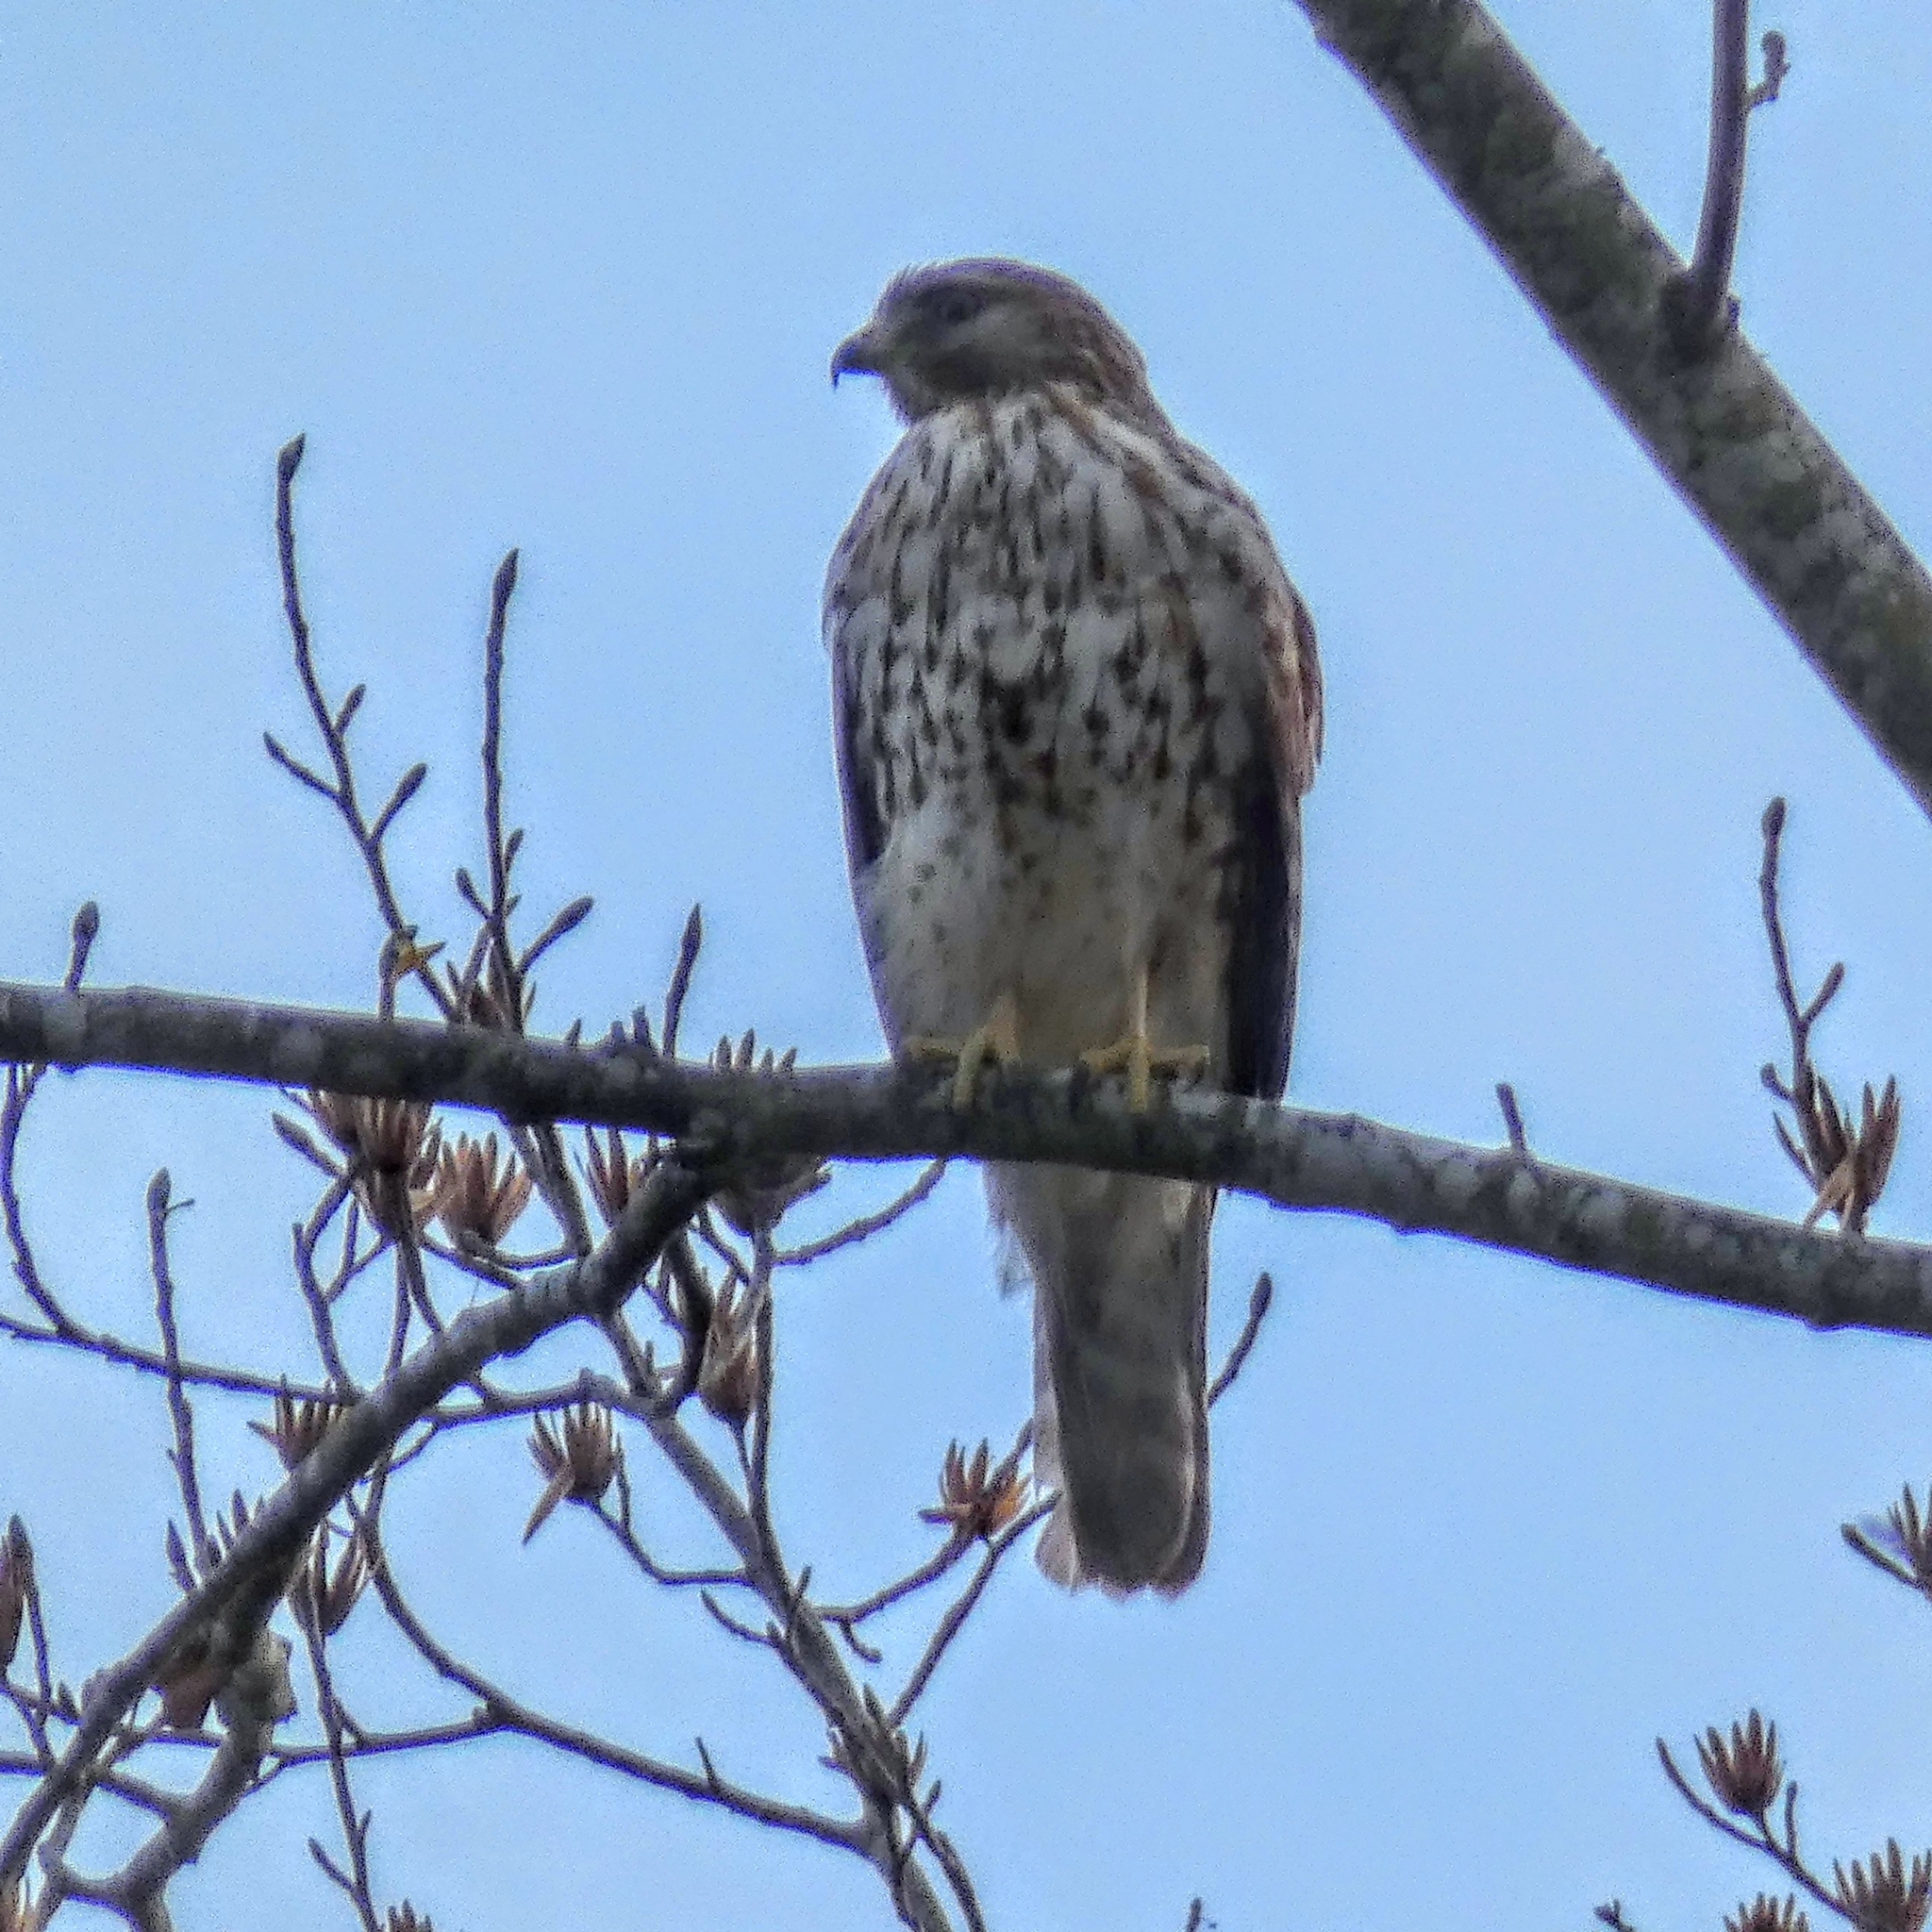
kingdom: Animalia
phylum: Chordata
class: Aves
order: Accipitriformes
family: Accipitridae
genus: Buteo
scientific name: Buteo lineatus
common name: Red-shouldered hawk
